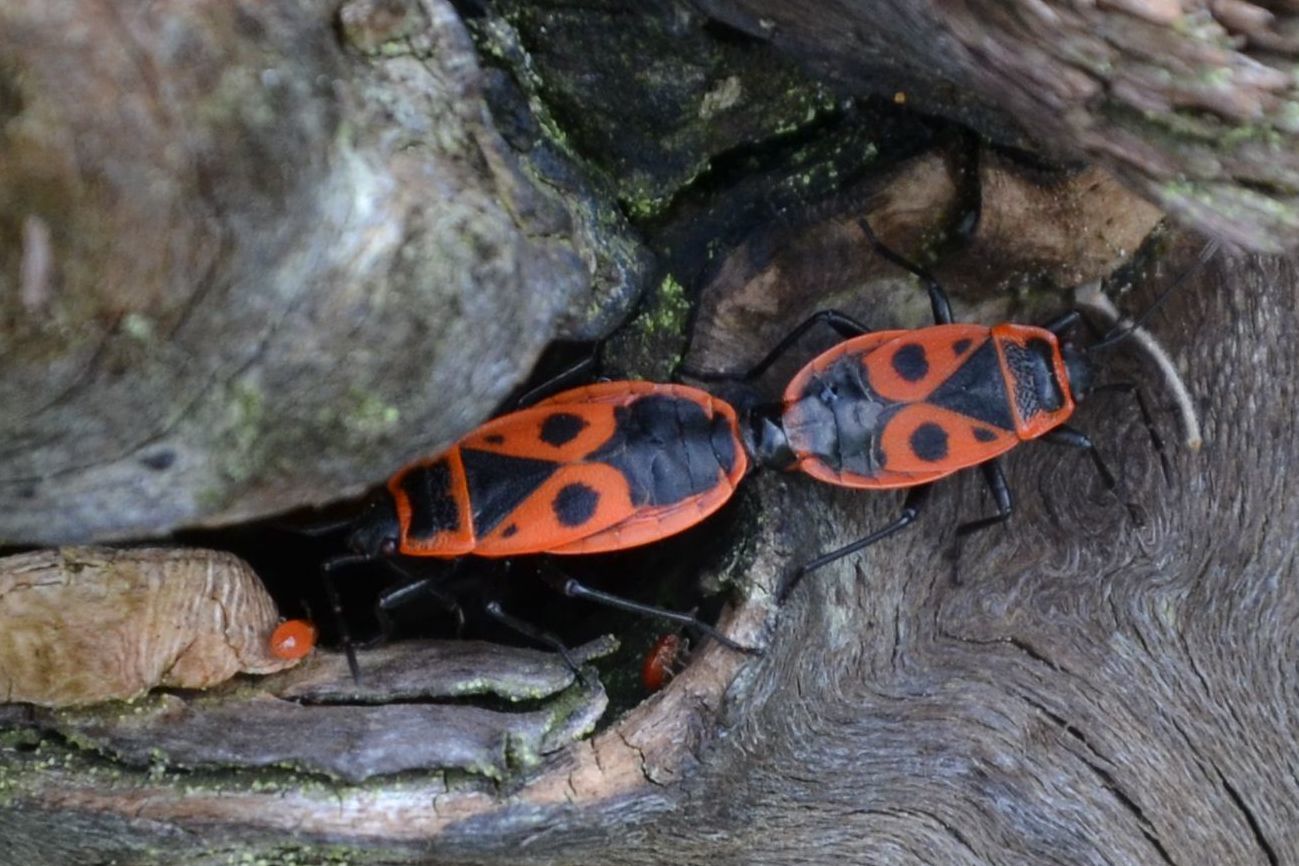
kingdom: Animalia
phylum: Arthropoda
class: Insecta
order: Hemiptera
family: Pyrrhocoridae
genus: Pyrrhocoris
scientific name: Pyrrhocoris apterus
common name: Firebug
